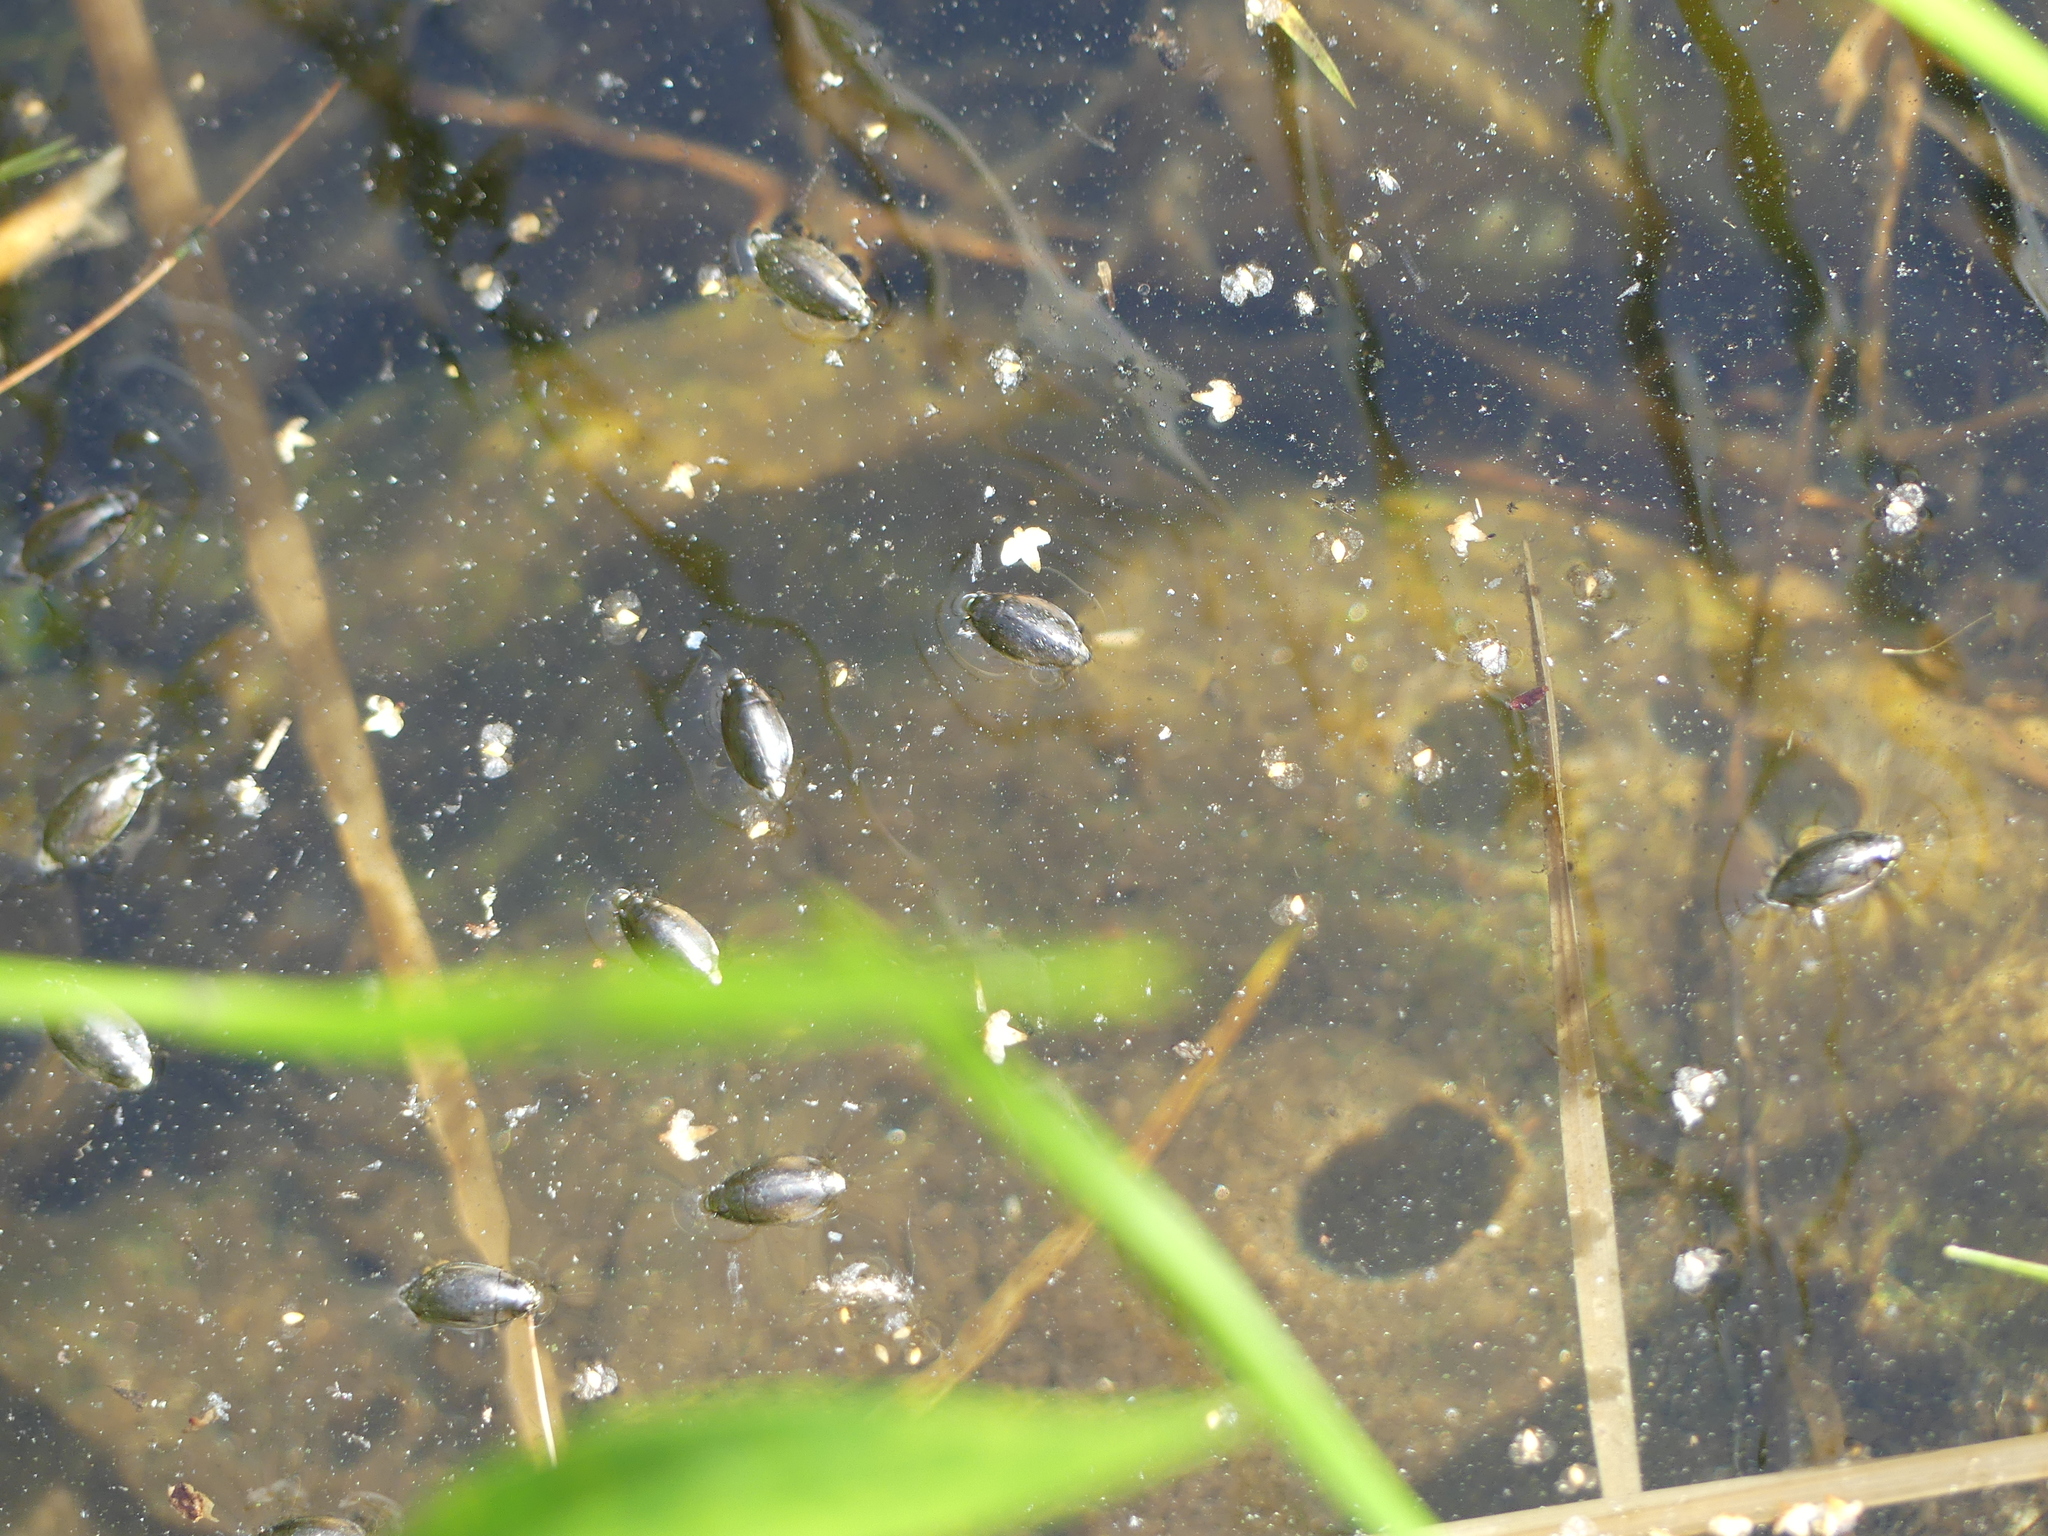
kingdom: Animalia
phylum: Arthropoda
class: Insecta
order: Coleoptera
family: Gyrinidae
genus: Dineutus
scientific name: Dineutus
